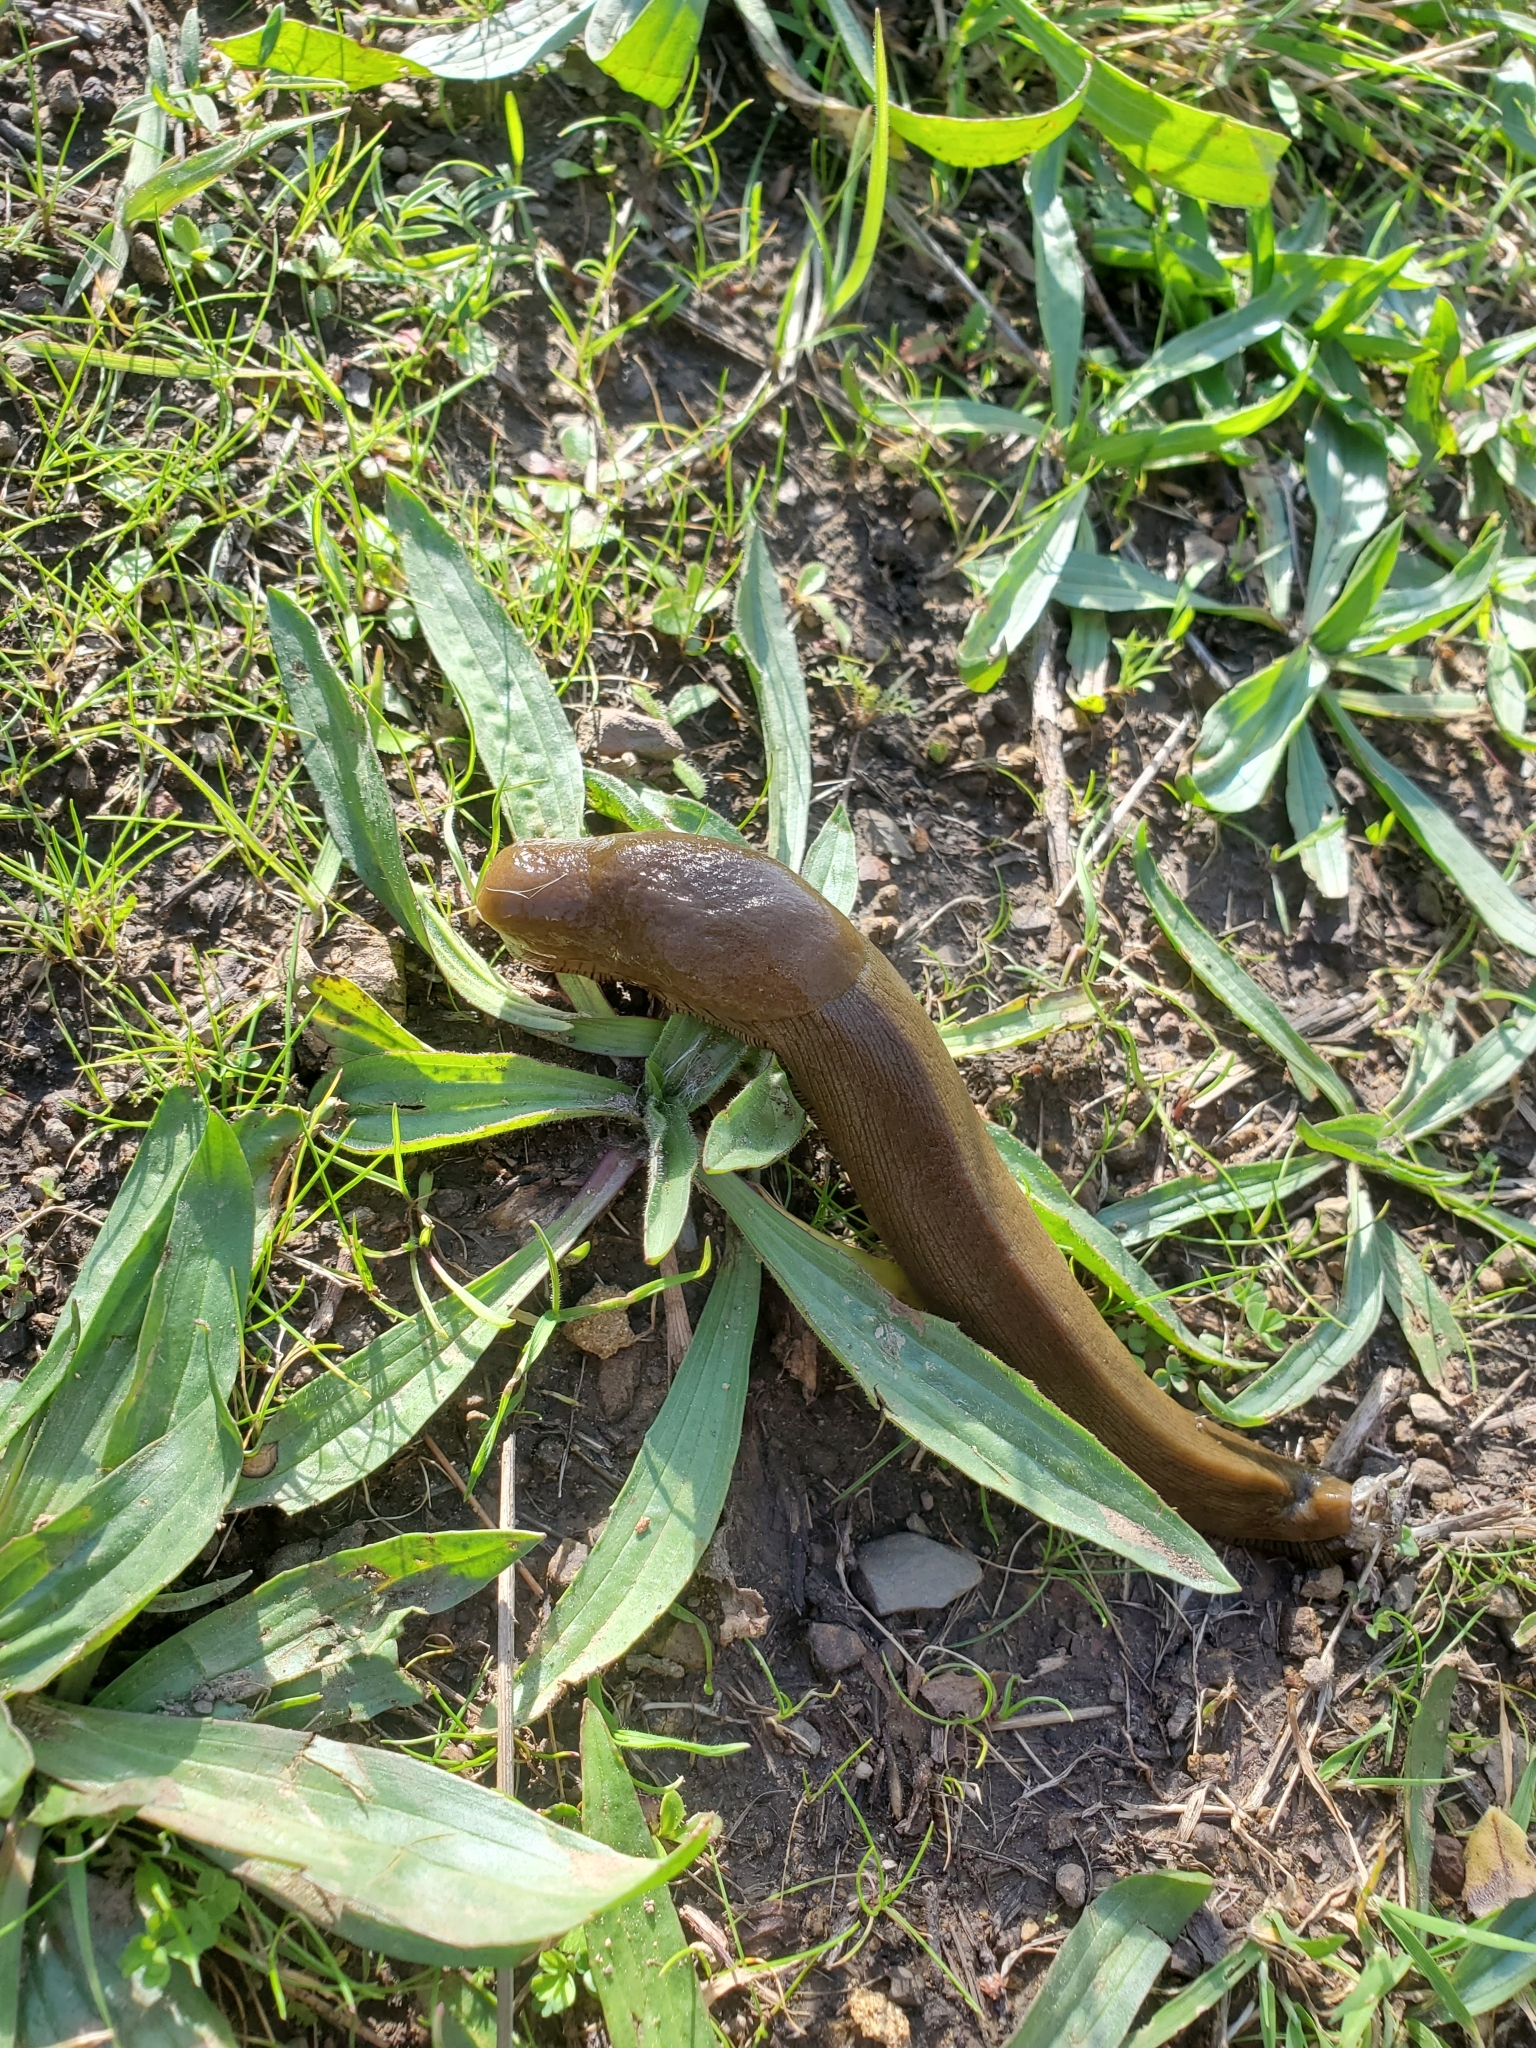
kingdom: Animalia
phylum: Mollusca
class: Gastropoda
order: Stylommatophora
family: Ariolimacidae
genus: Ariolimax
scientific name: Ariolimax buttoni
